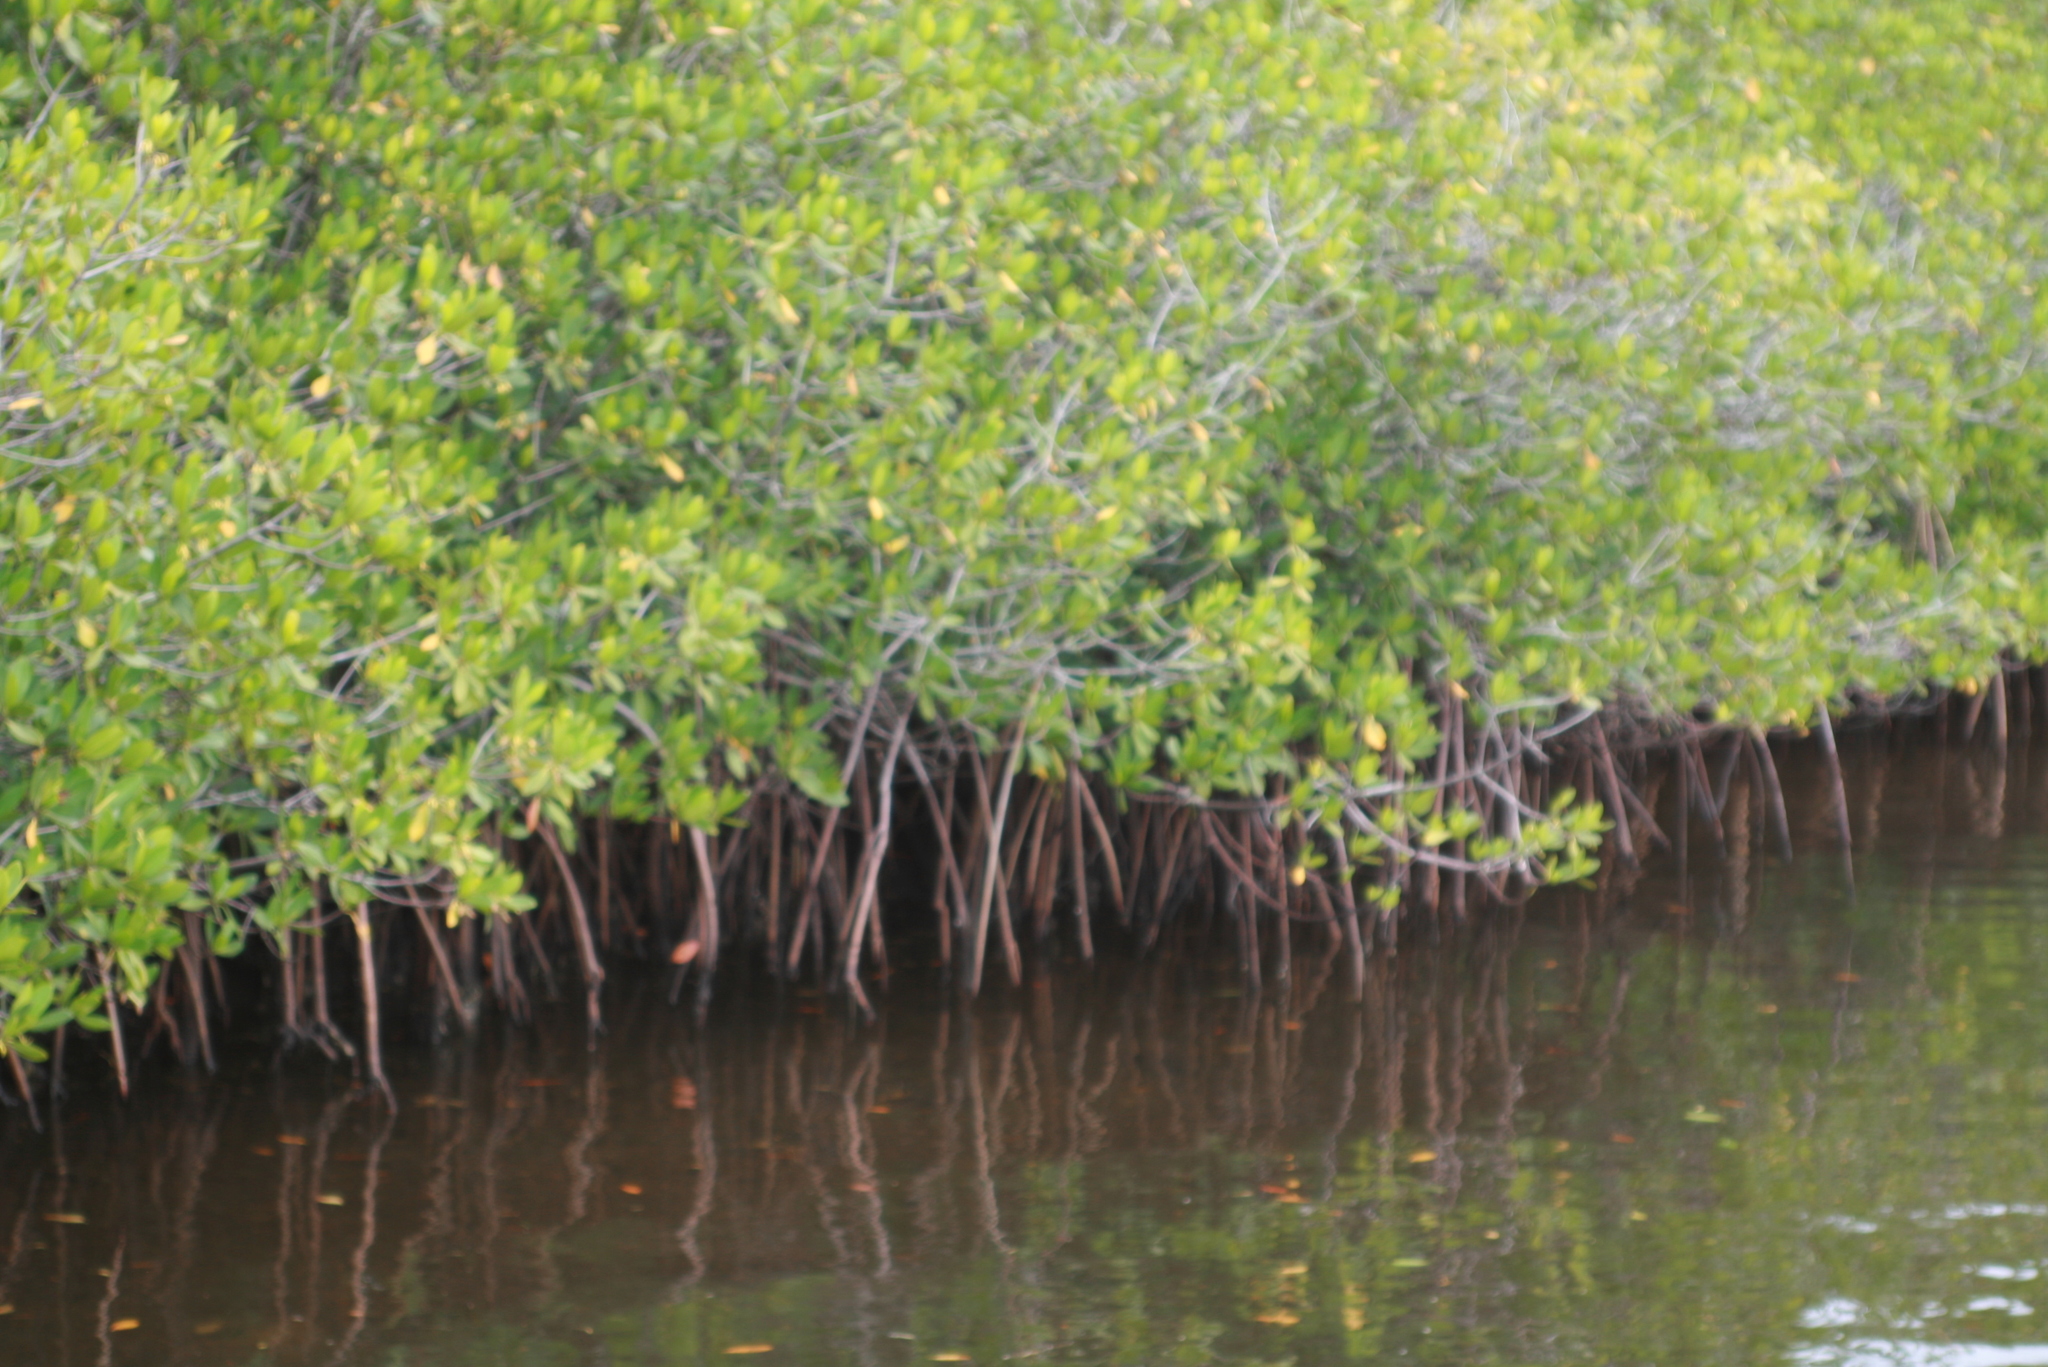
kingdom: Plantae
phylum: Tracheophyta
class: Magnoliopsida
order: Malpighiales
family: Rhizophoraceae
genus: Rhizophora
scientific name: Rhizophora mangle
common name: Red mangrove
